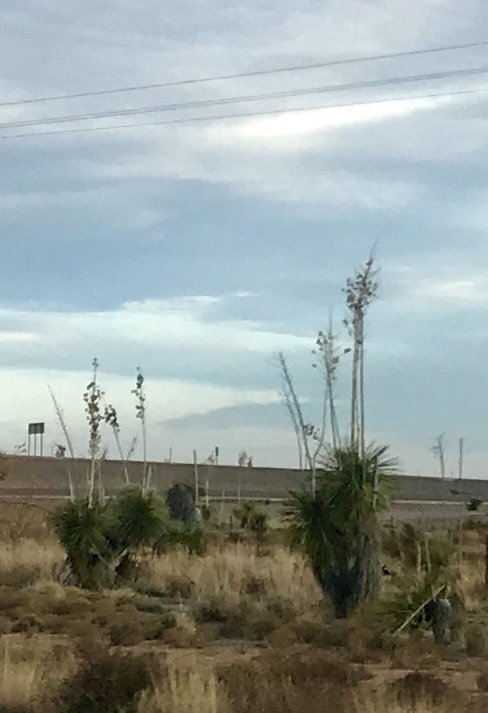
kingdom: Plantae
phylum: Tracheophyta
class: Liliopsida
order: Asparagales
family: Asparagaceae
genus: Yucca
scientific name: Yucca elata
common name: Palmella
